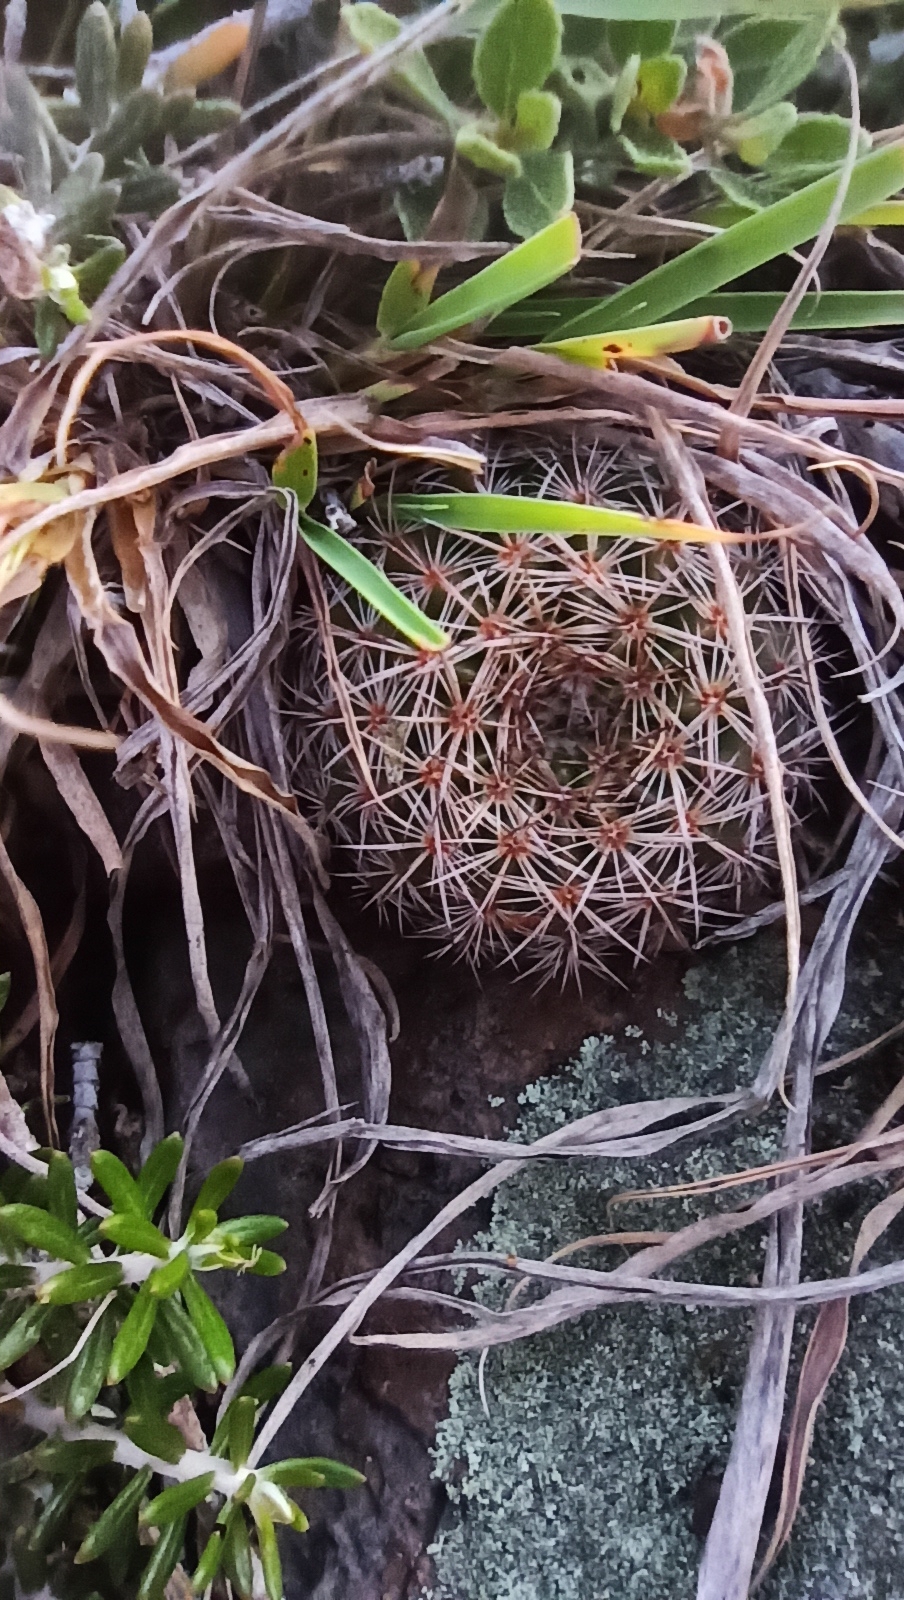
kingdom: Plantae
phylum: Tracheophyta
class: Magnoliopsida
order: Caryophyllales
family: Cactaceae
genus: Parodia
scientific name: Parodia concinna
